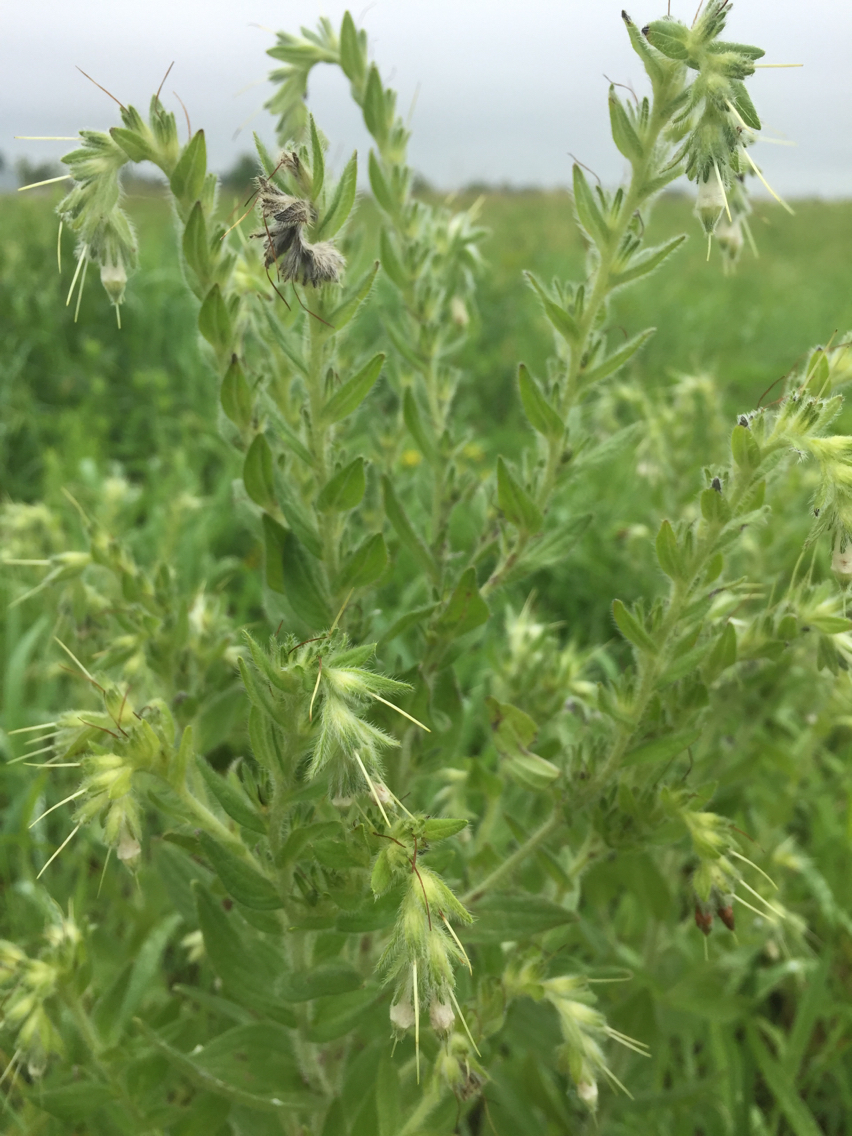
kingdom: Plantae
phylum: Tracheophyta
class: Magnoliopsida
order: Boraginales
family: Boraginaceae
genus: Lithospermum
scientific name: Lithospermum parviflorum
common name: Hairy false gromwell
